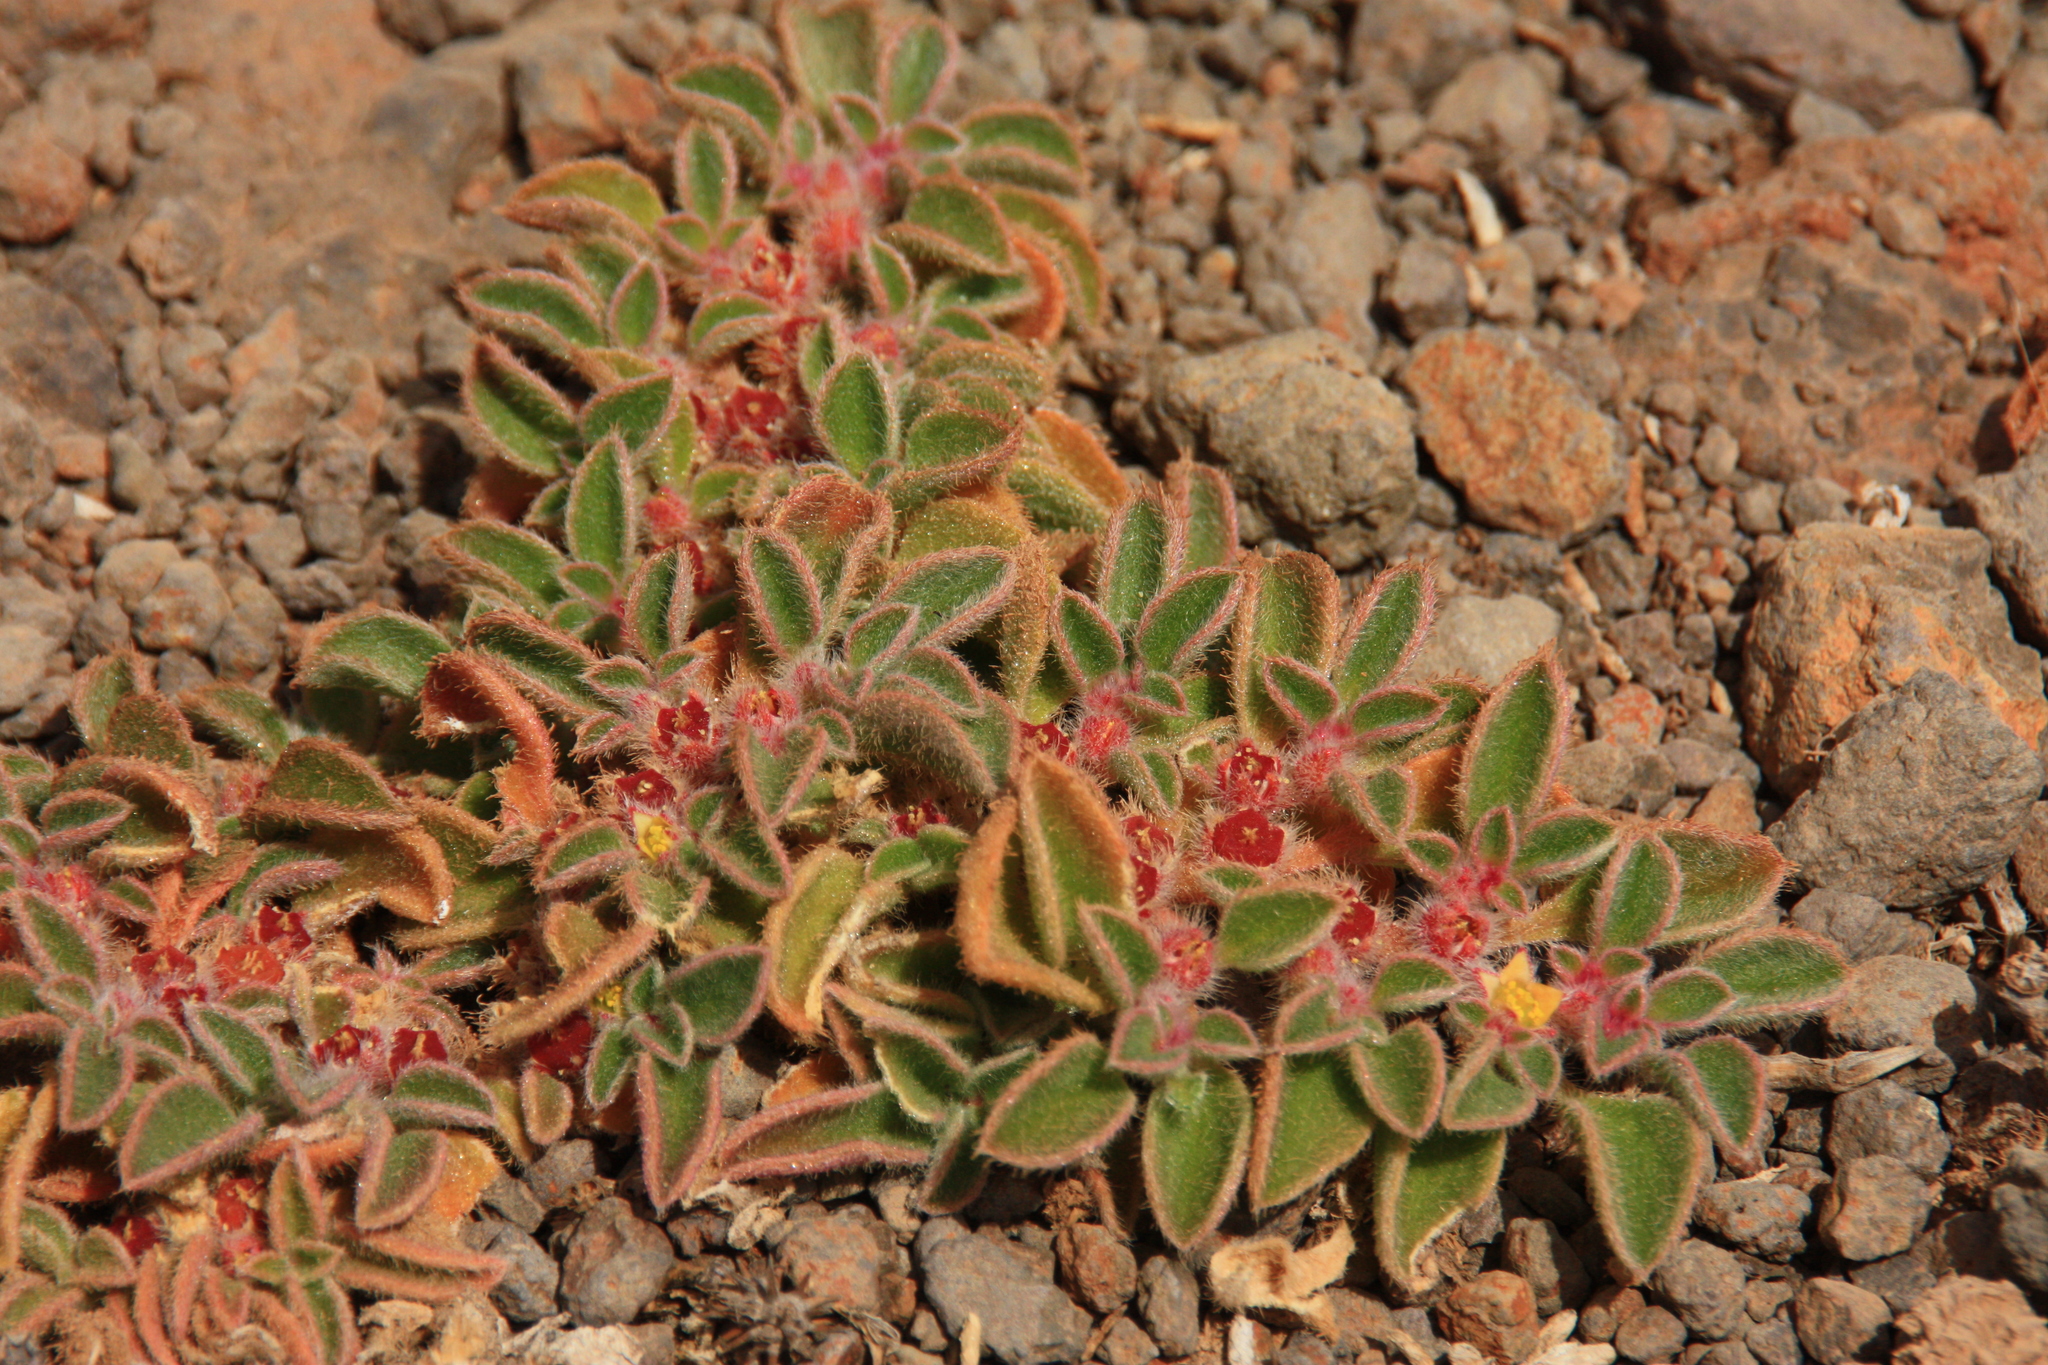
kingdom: Plantae
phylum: Tracheophyta
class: Magnoliopsida
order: Caryophyllales
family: Aizoaceae
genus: Aizoon
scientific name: Aizoon canariense
